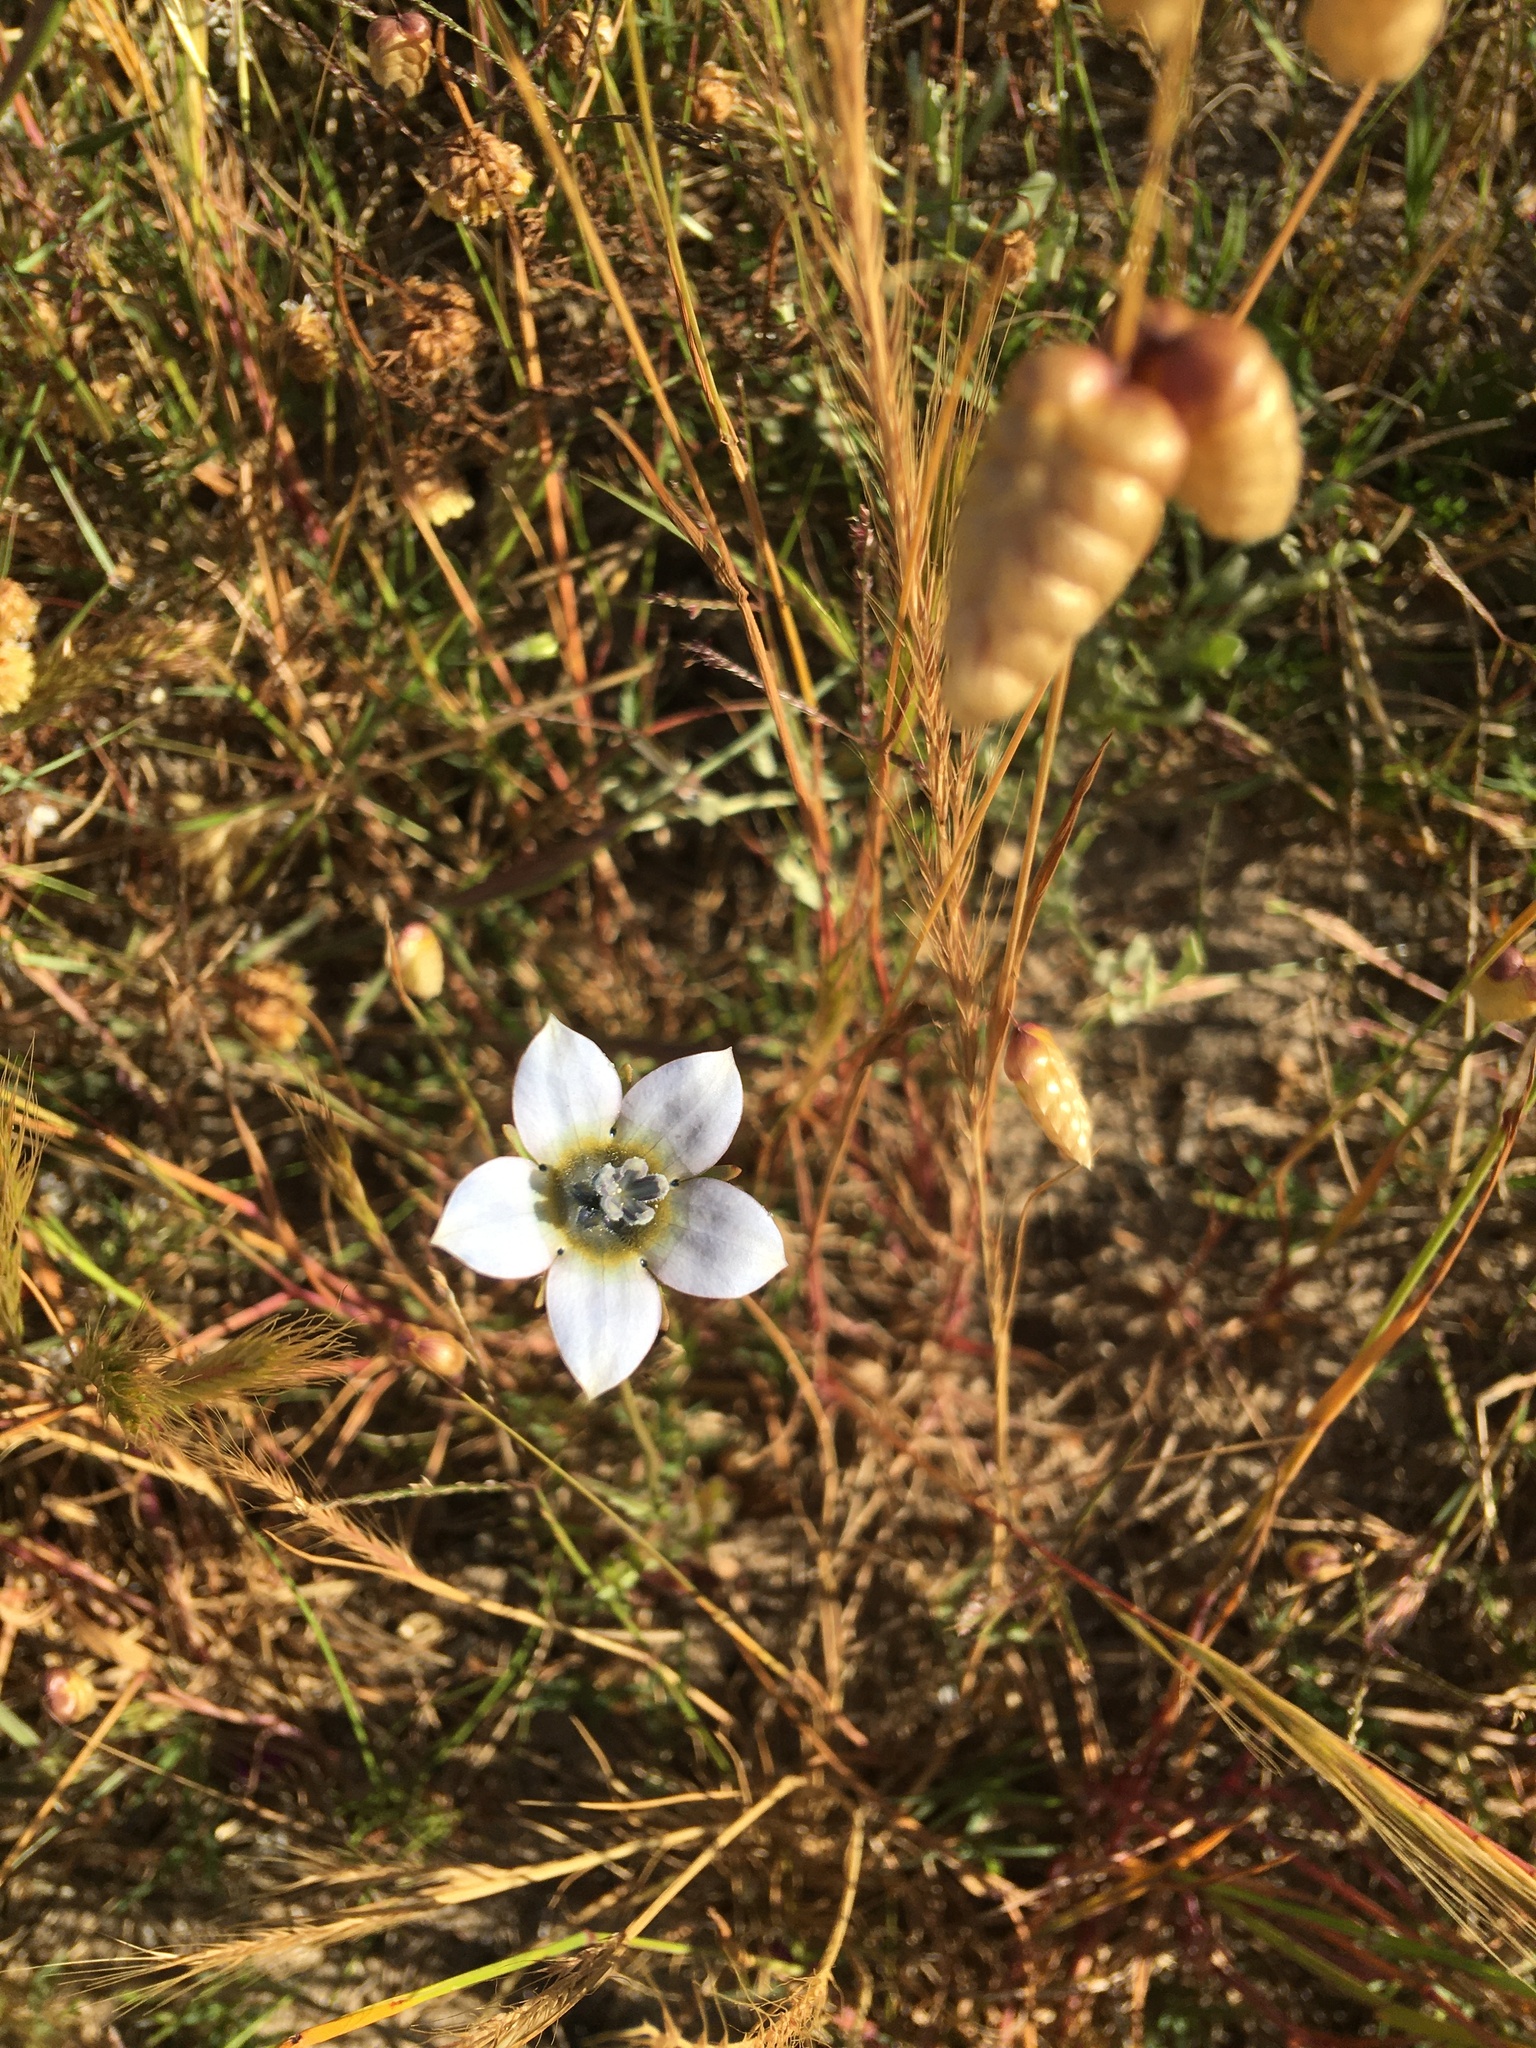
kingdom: Plantae
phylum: Tracheophyta
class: Magnoliopsida
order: Asterales
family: Campanulaceae
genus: Wahlenbergia
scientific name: Wahlenbergia capensis
